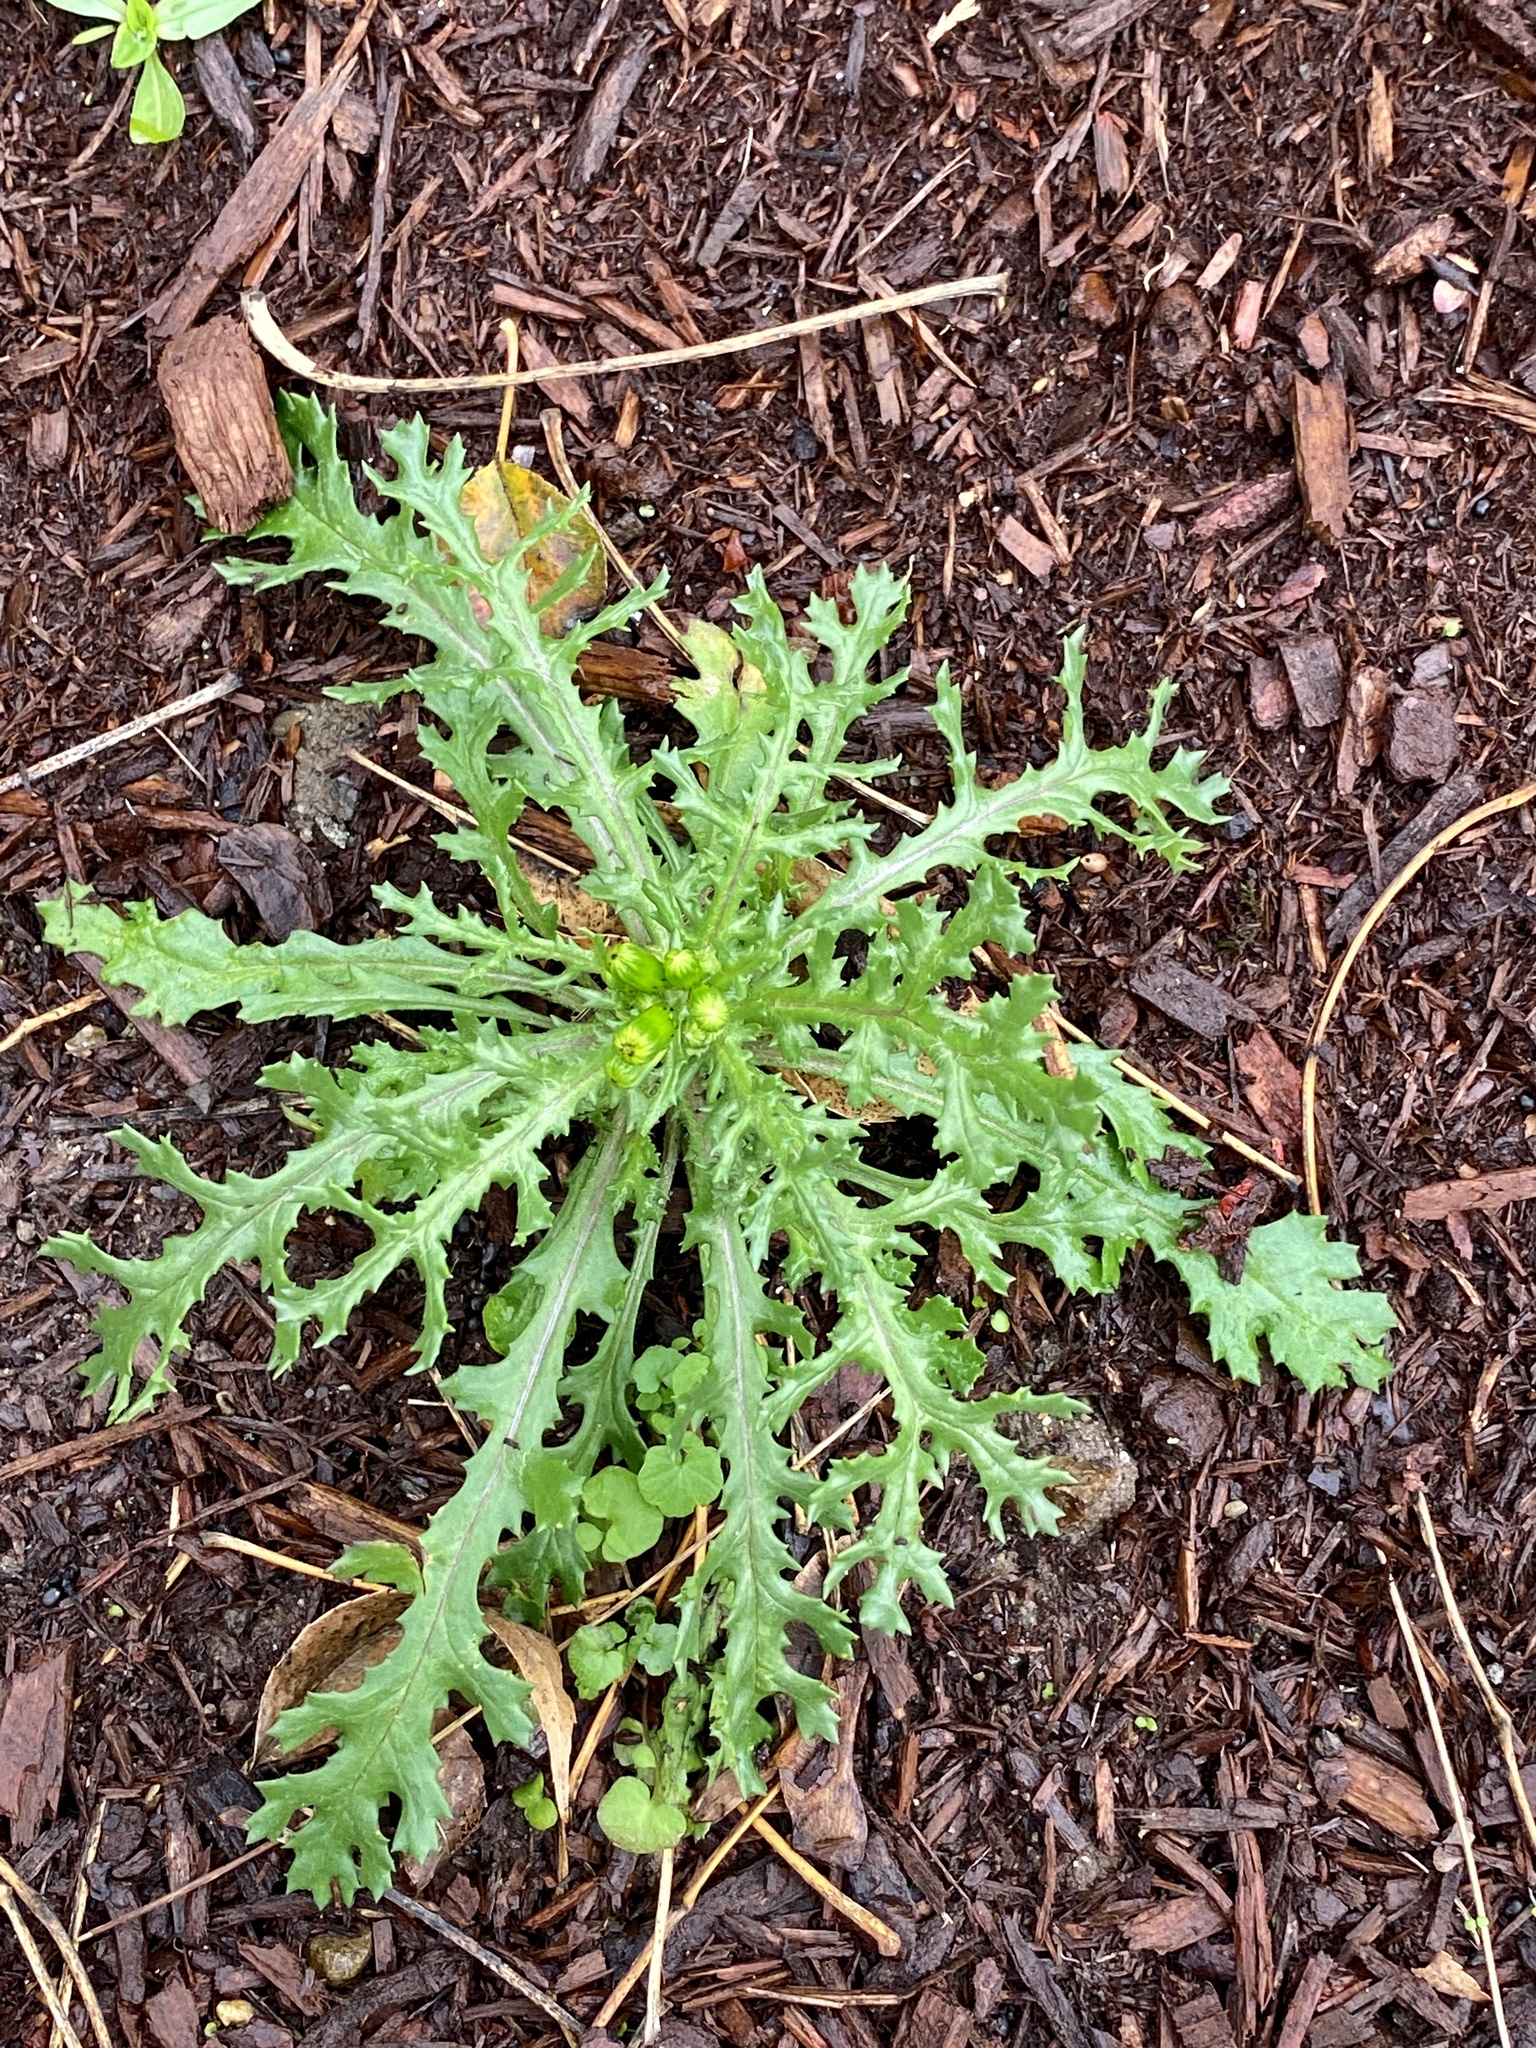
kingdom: Plantae
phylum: Tracheophyta
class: Magnoliopsida
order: Asterales
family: Asteraceae
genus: Senecio
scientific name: Senecio vulgaris
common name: Old-man-in-the-spring
